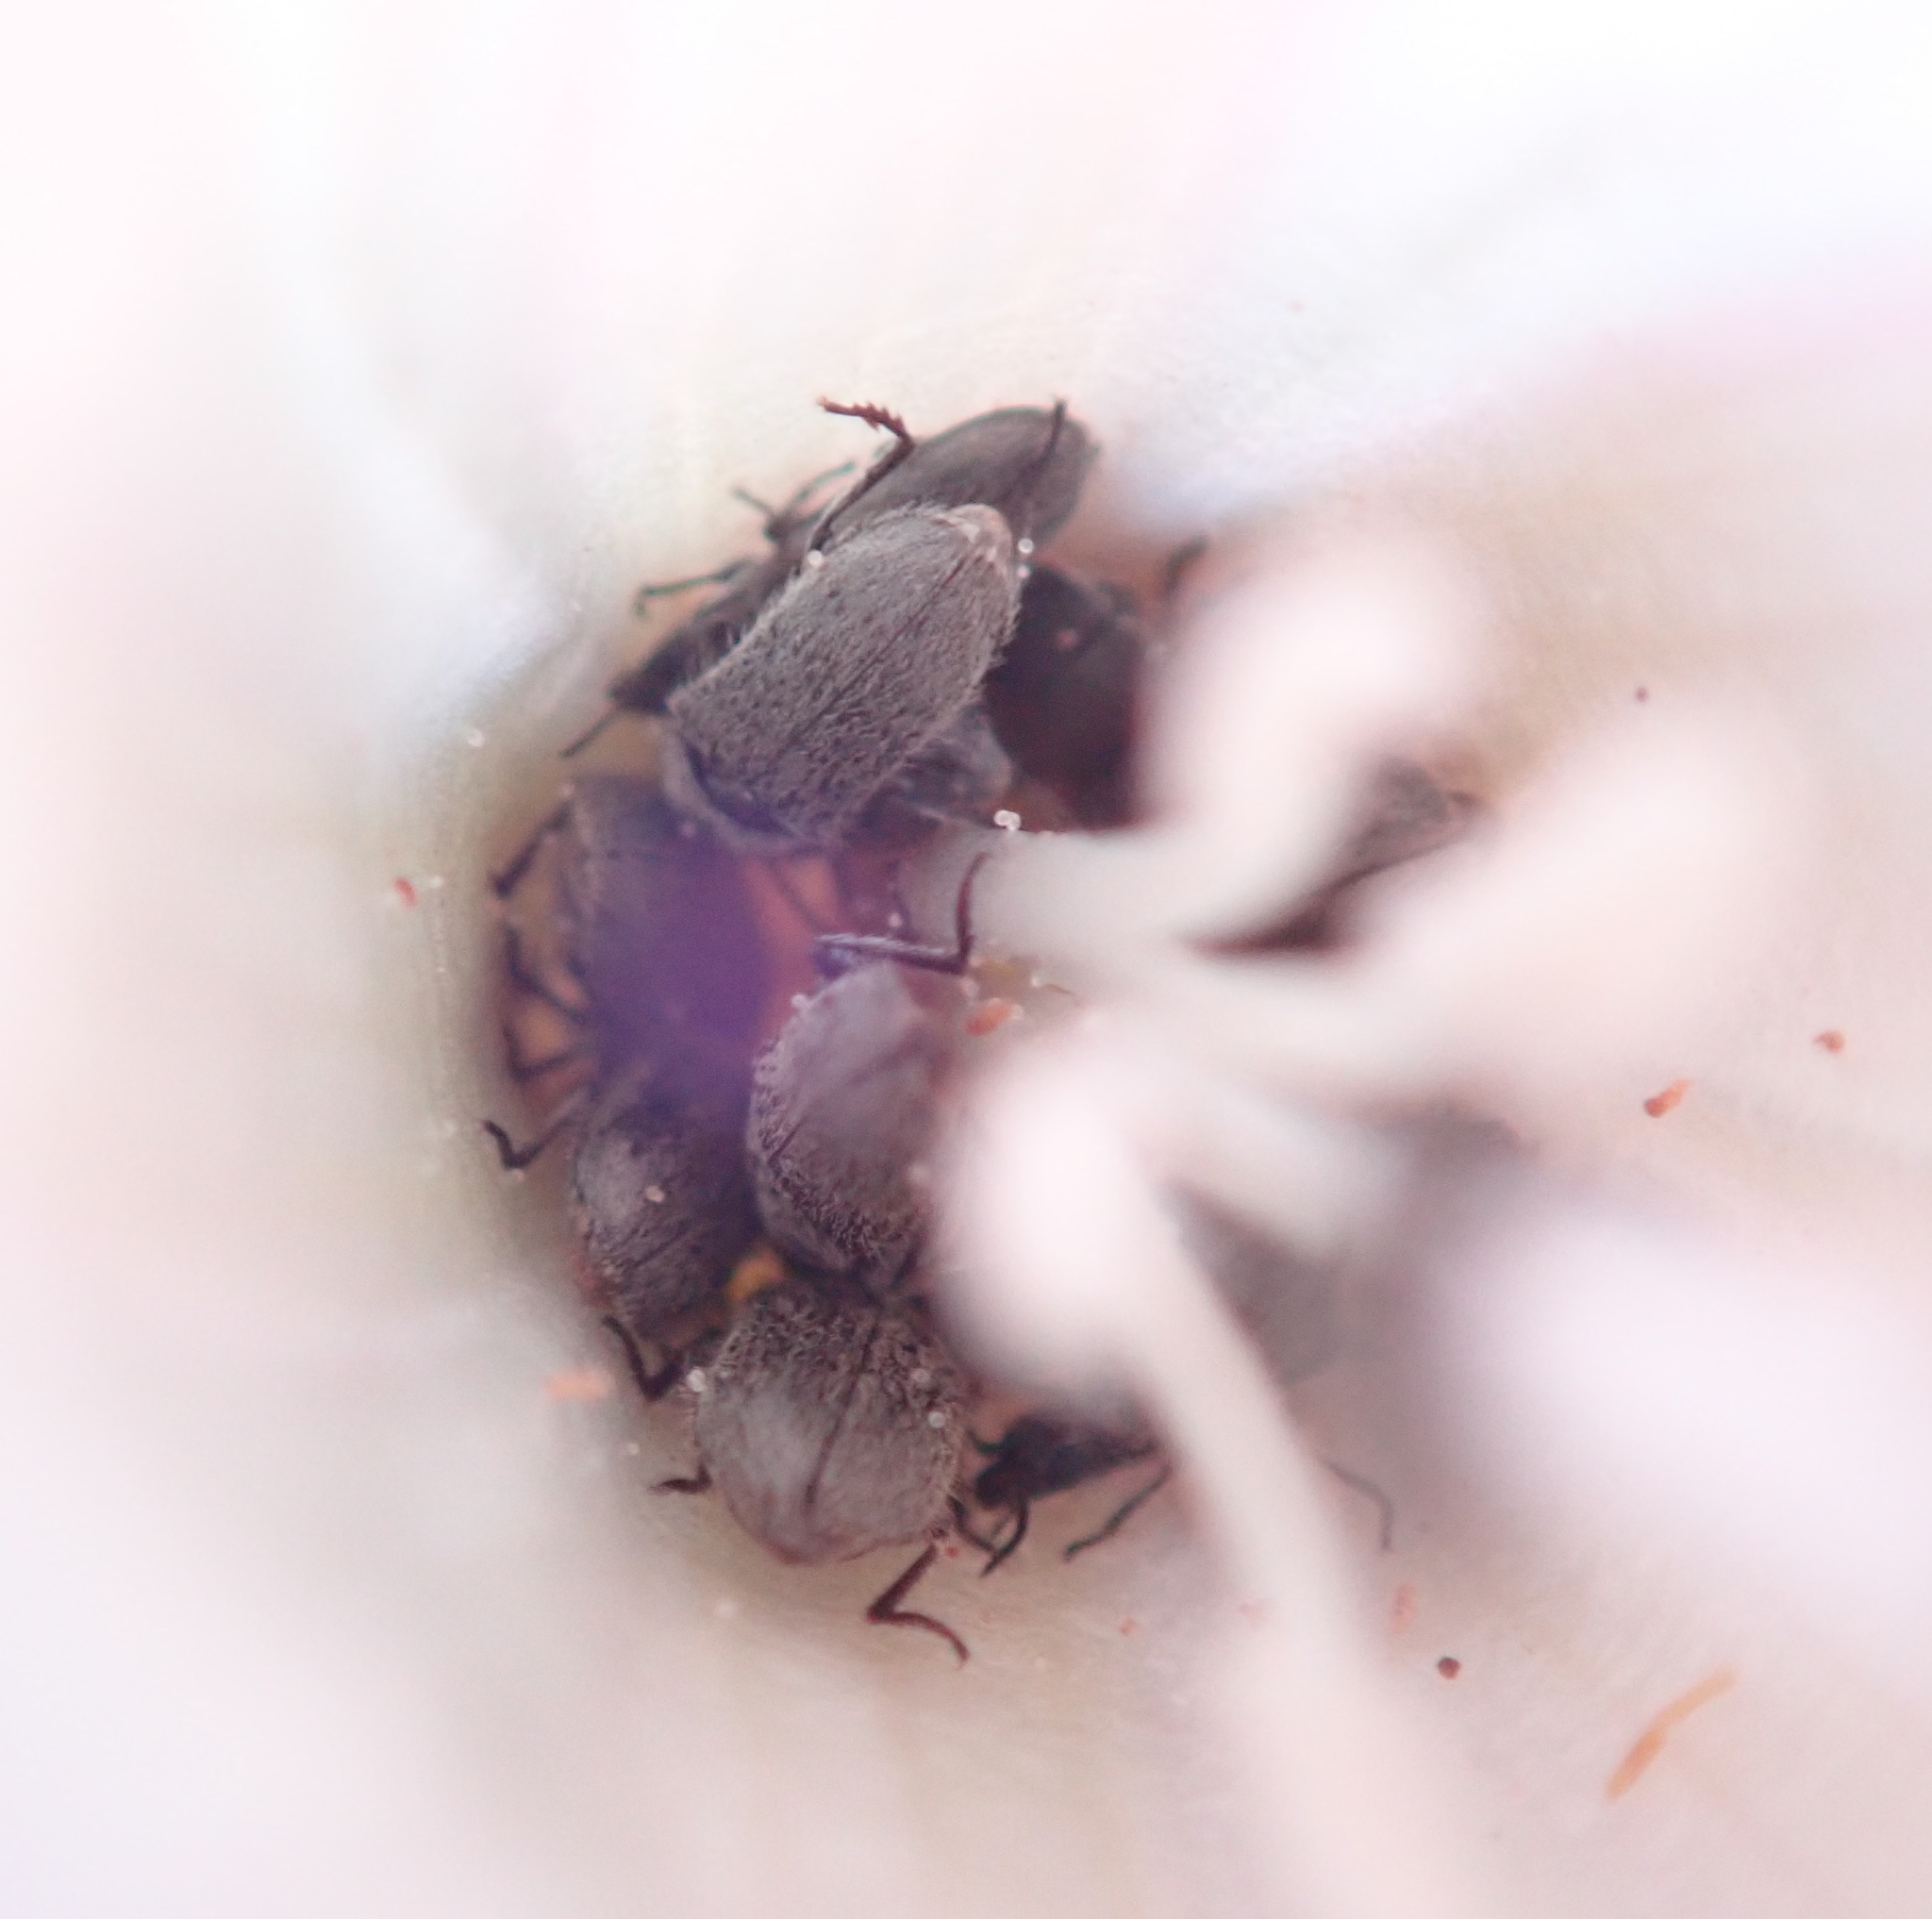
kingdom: Plantae
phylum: Tracheophyta
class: Magnoliopsida
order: Solanales
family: Convolvulaceae
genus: Calystegia
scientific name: Calystegia subacaulis
